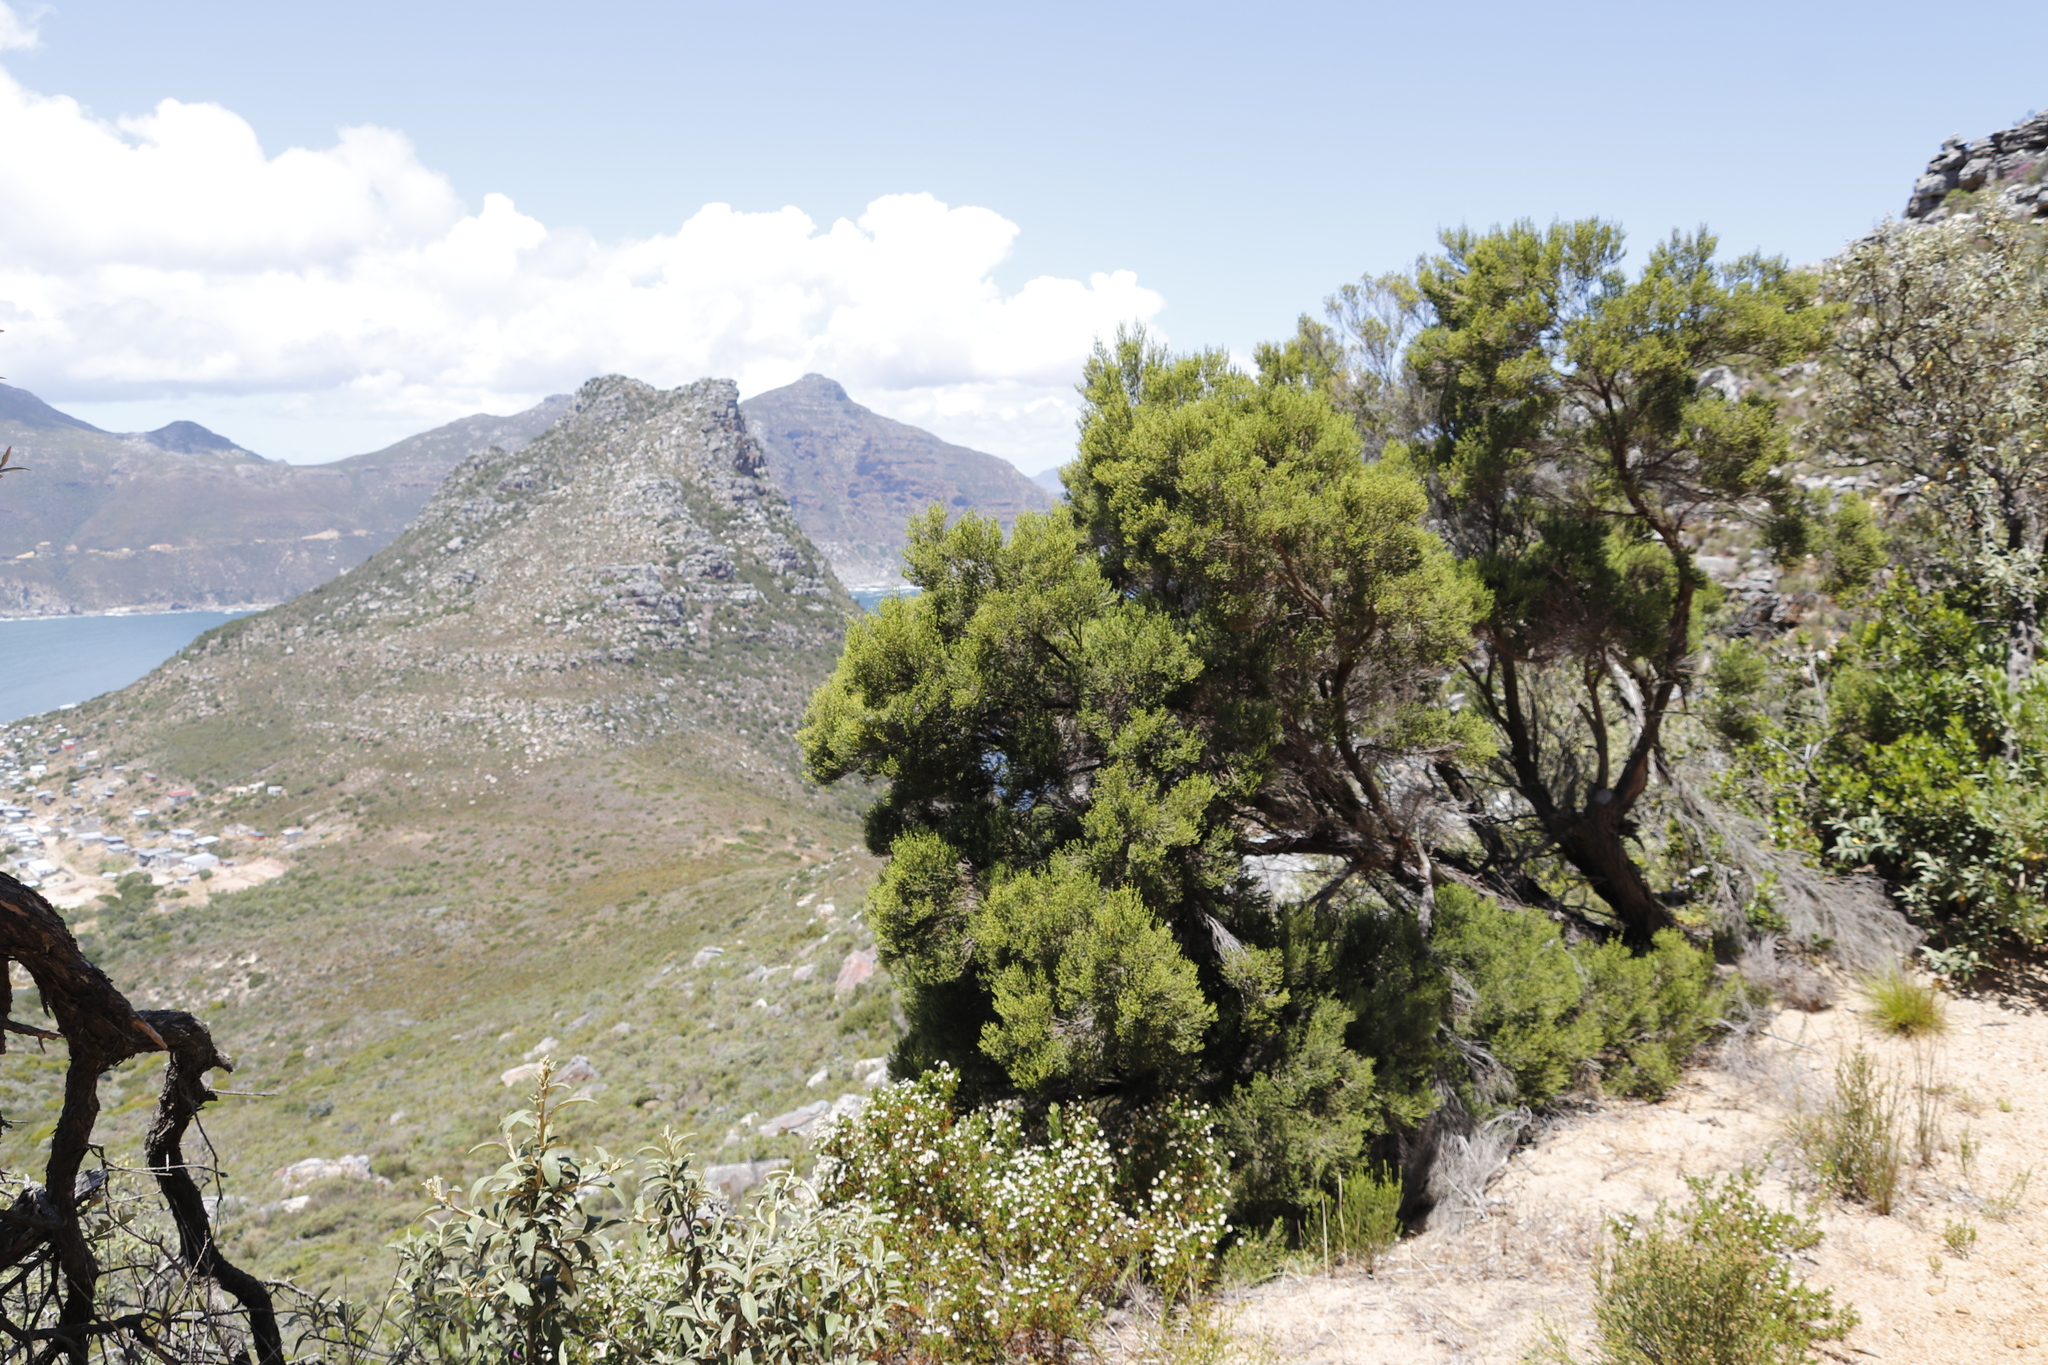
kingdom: Plantae
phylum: Tracheophyta
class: Magnoliopsida
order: Ericales
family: Ericaceae
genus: Erica
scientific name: Erica tristis
